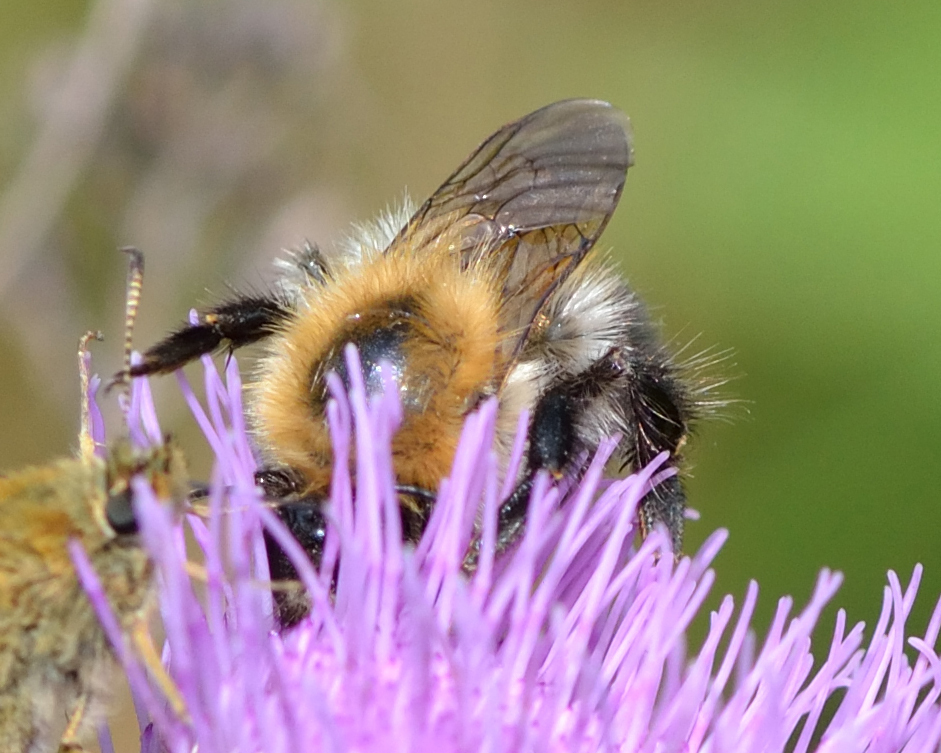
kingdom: Animalia
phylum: Arthropoda
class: Insecta
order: Hymenoptera
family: Apidae
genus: Bombus
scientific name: Bombus pascuorum
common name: Common carder bee
